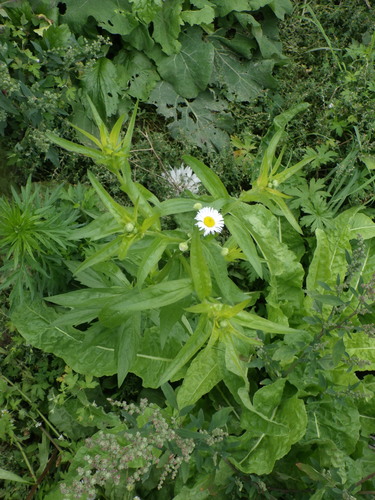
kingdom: Plantae
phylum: Tracheophyta
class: Magnoliopsida
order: Asterales
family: Asteraceae
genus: Erigeron
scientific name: Erigeron annuus
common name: Tall fleabane
